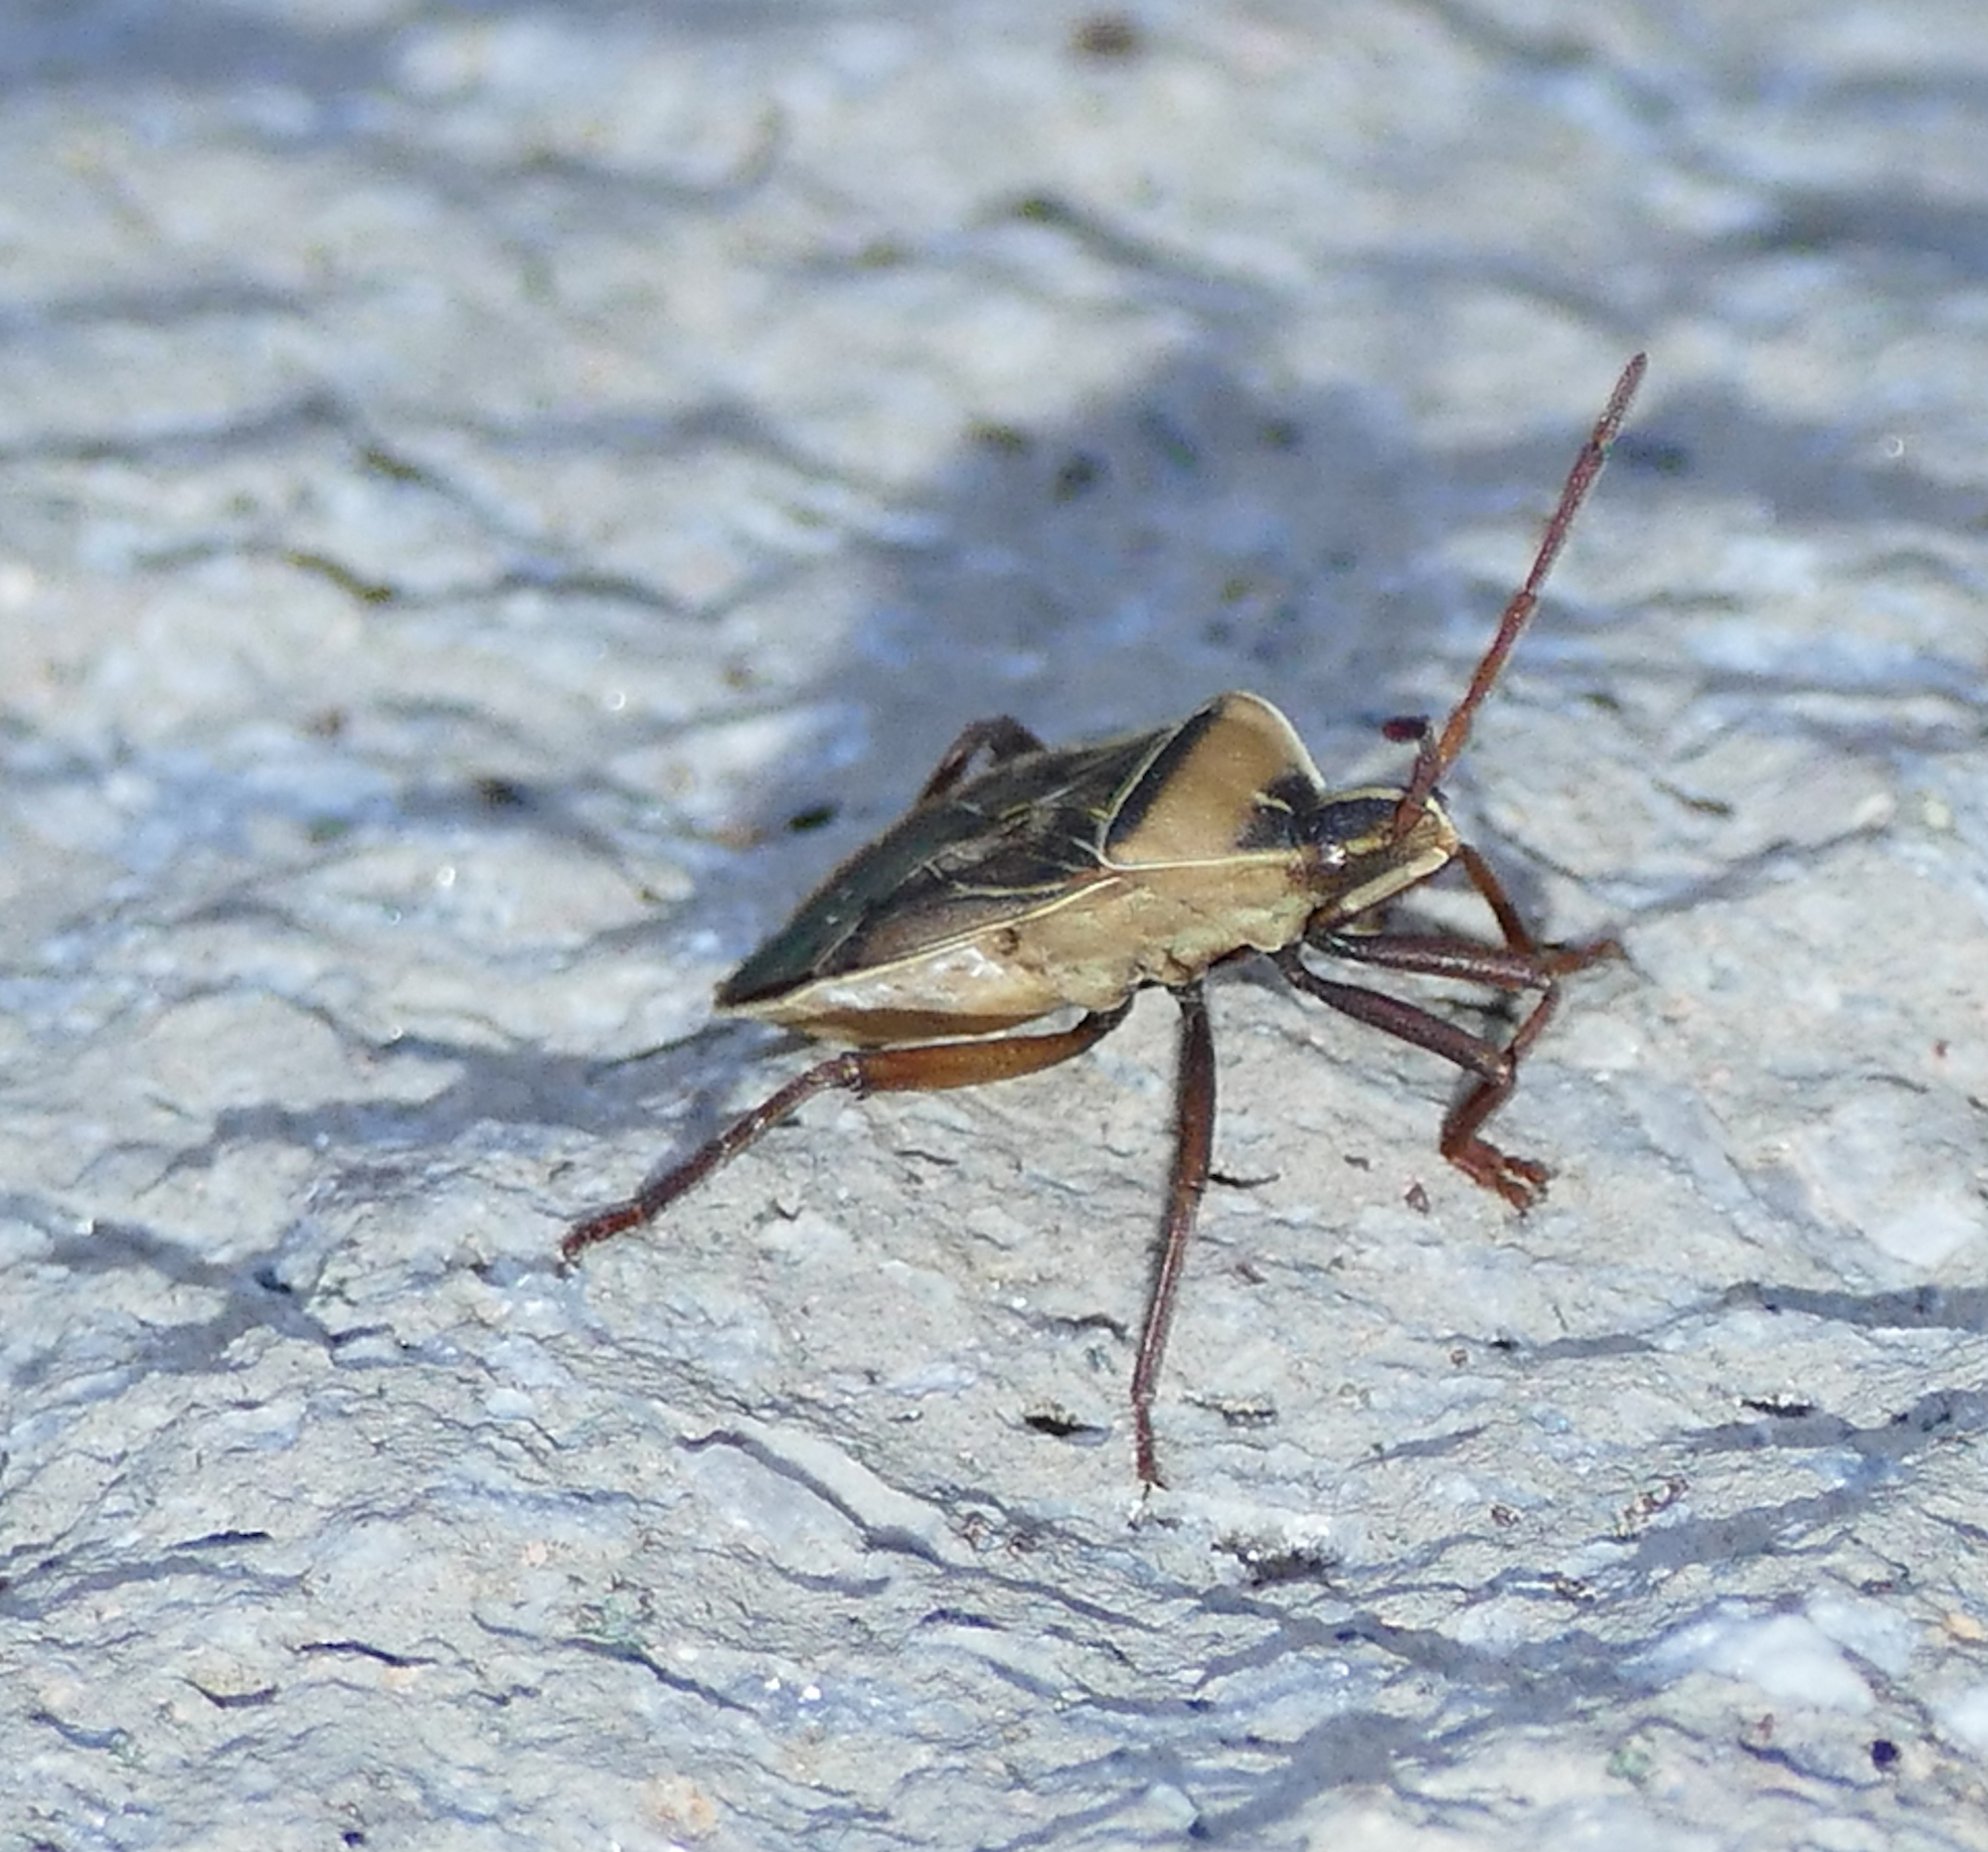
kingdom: Animalia
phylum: Arthropoda
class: Insecta
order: Hemiptera
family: Coreidae
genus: Chelinidea
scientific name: Chelinidea vittiger
